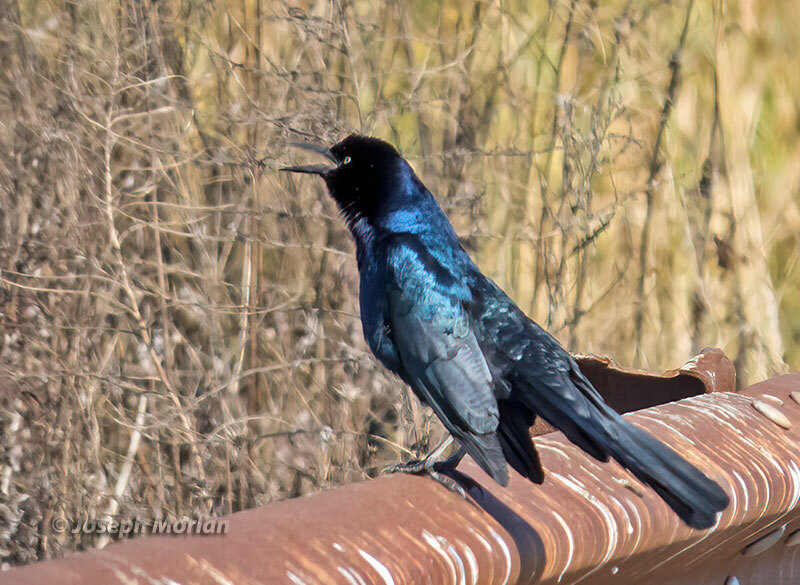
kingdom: Animalia
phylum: Chordata
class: Aves
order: Passeriformes
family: Icteridae
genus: Quiscalus
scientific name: Quiscalus major
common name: Boat-tailed grackle
